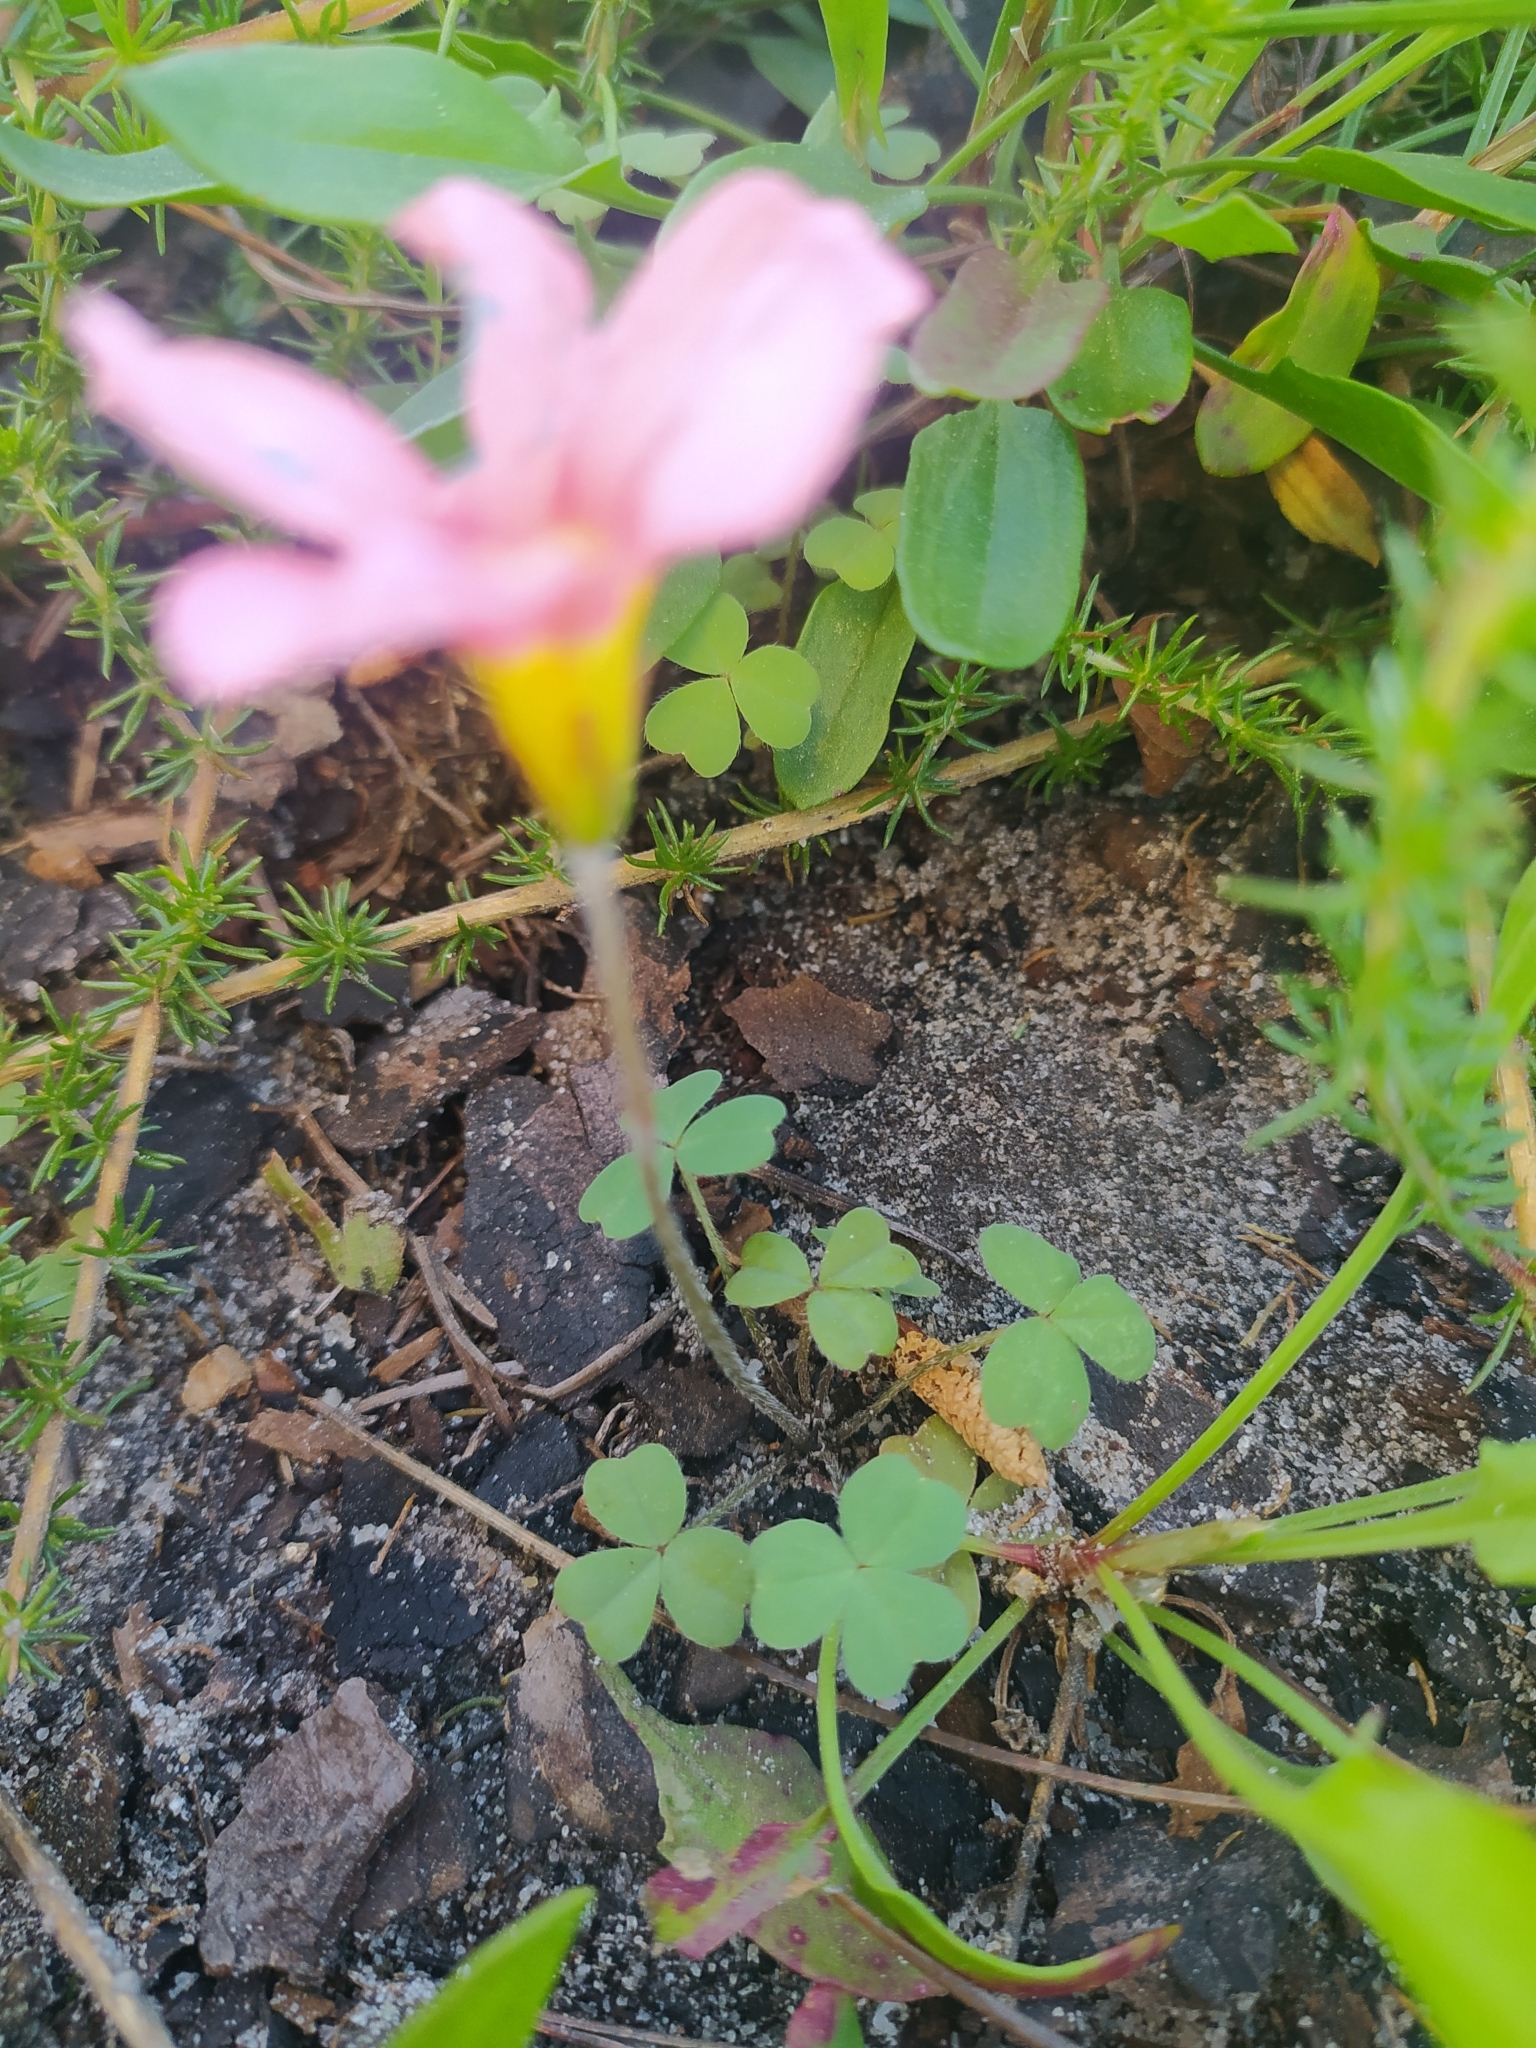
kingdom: Plantae
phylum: Tracheophyta
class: Magnoliopsida
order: Oxalidales
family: Oxalidaceae
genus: Oxalis
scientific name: Oxalis obtusa
